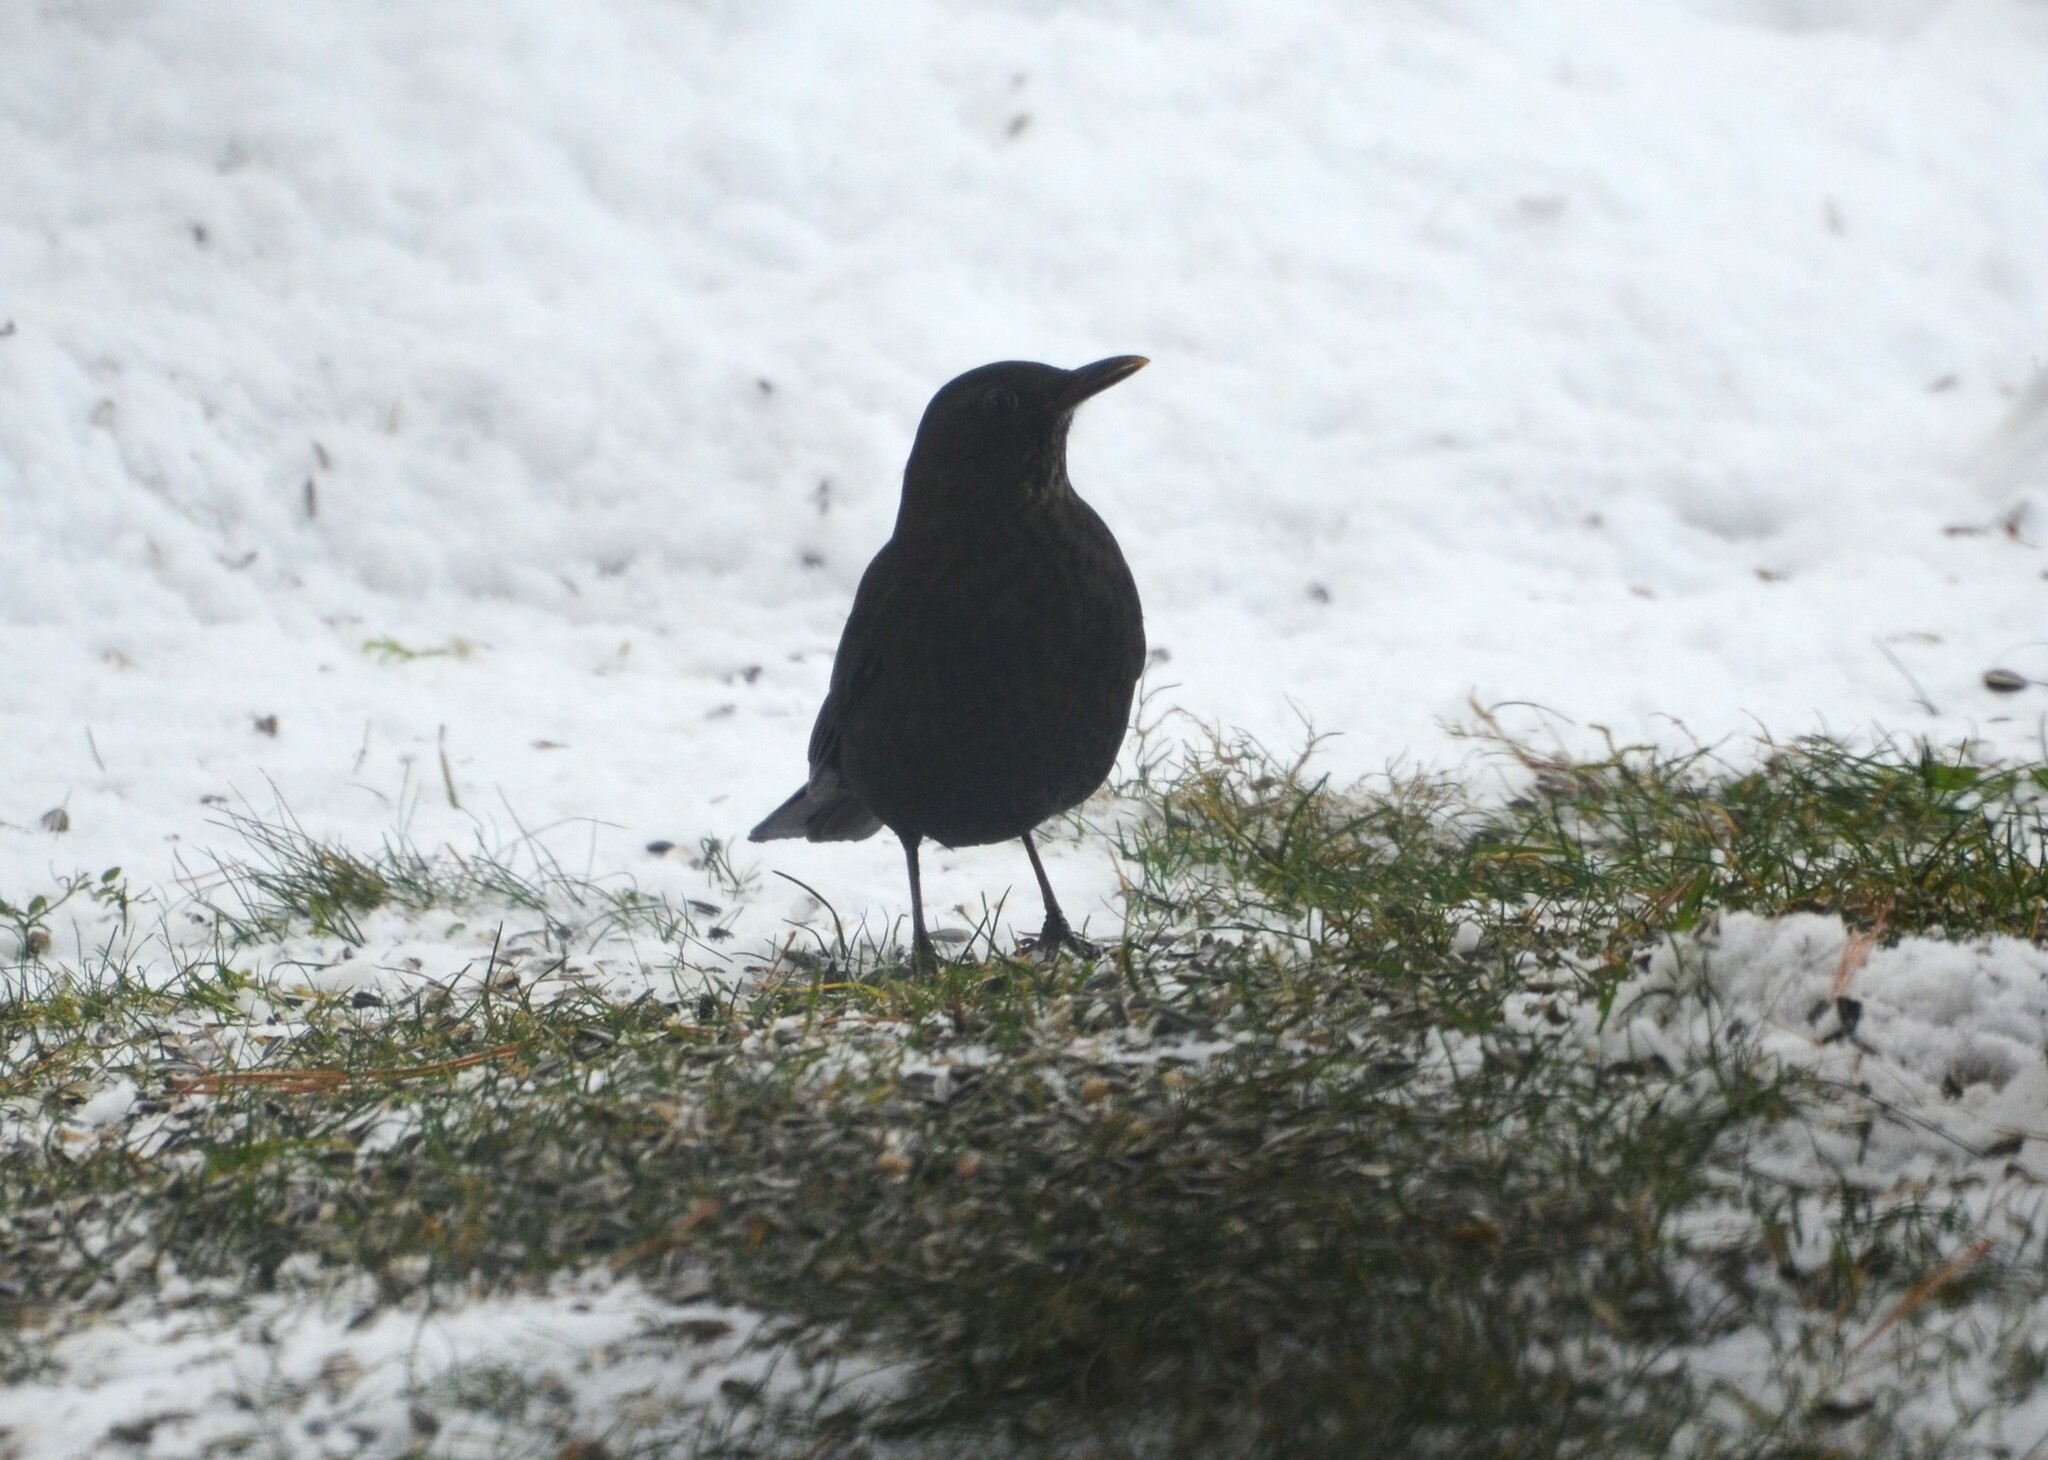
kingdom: Animalia
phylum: Chordata
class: Aves
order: Passeriformes
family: Turdidae
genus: Turdus
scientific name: Turdus merula
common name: Common blackbird
